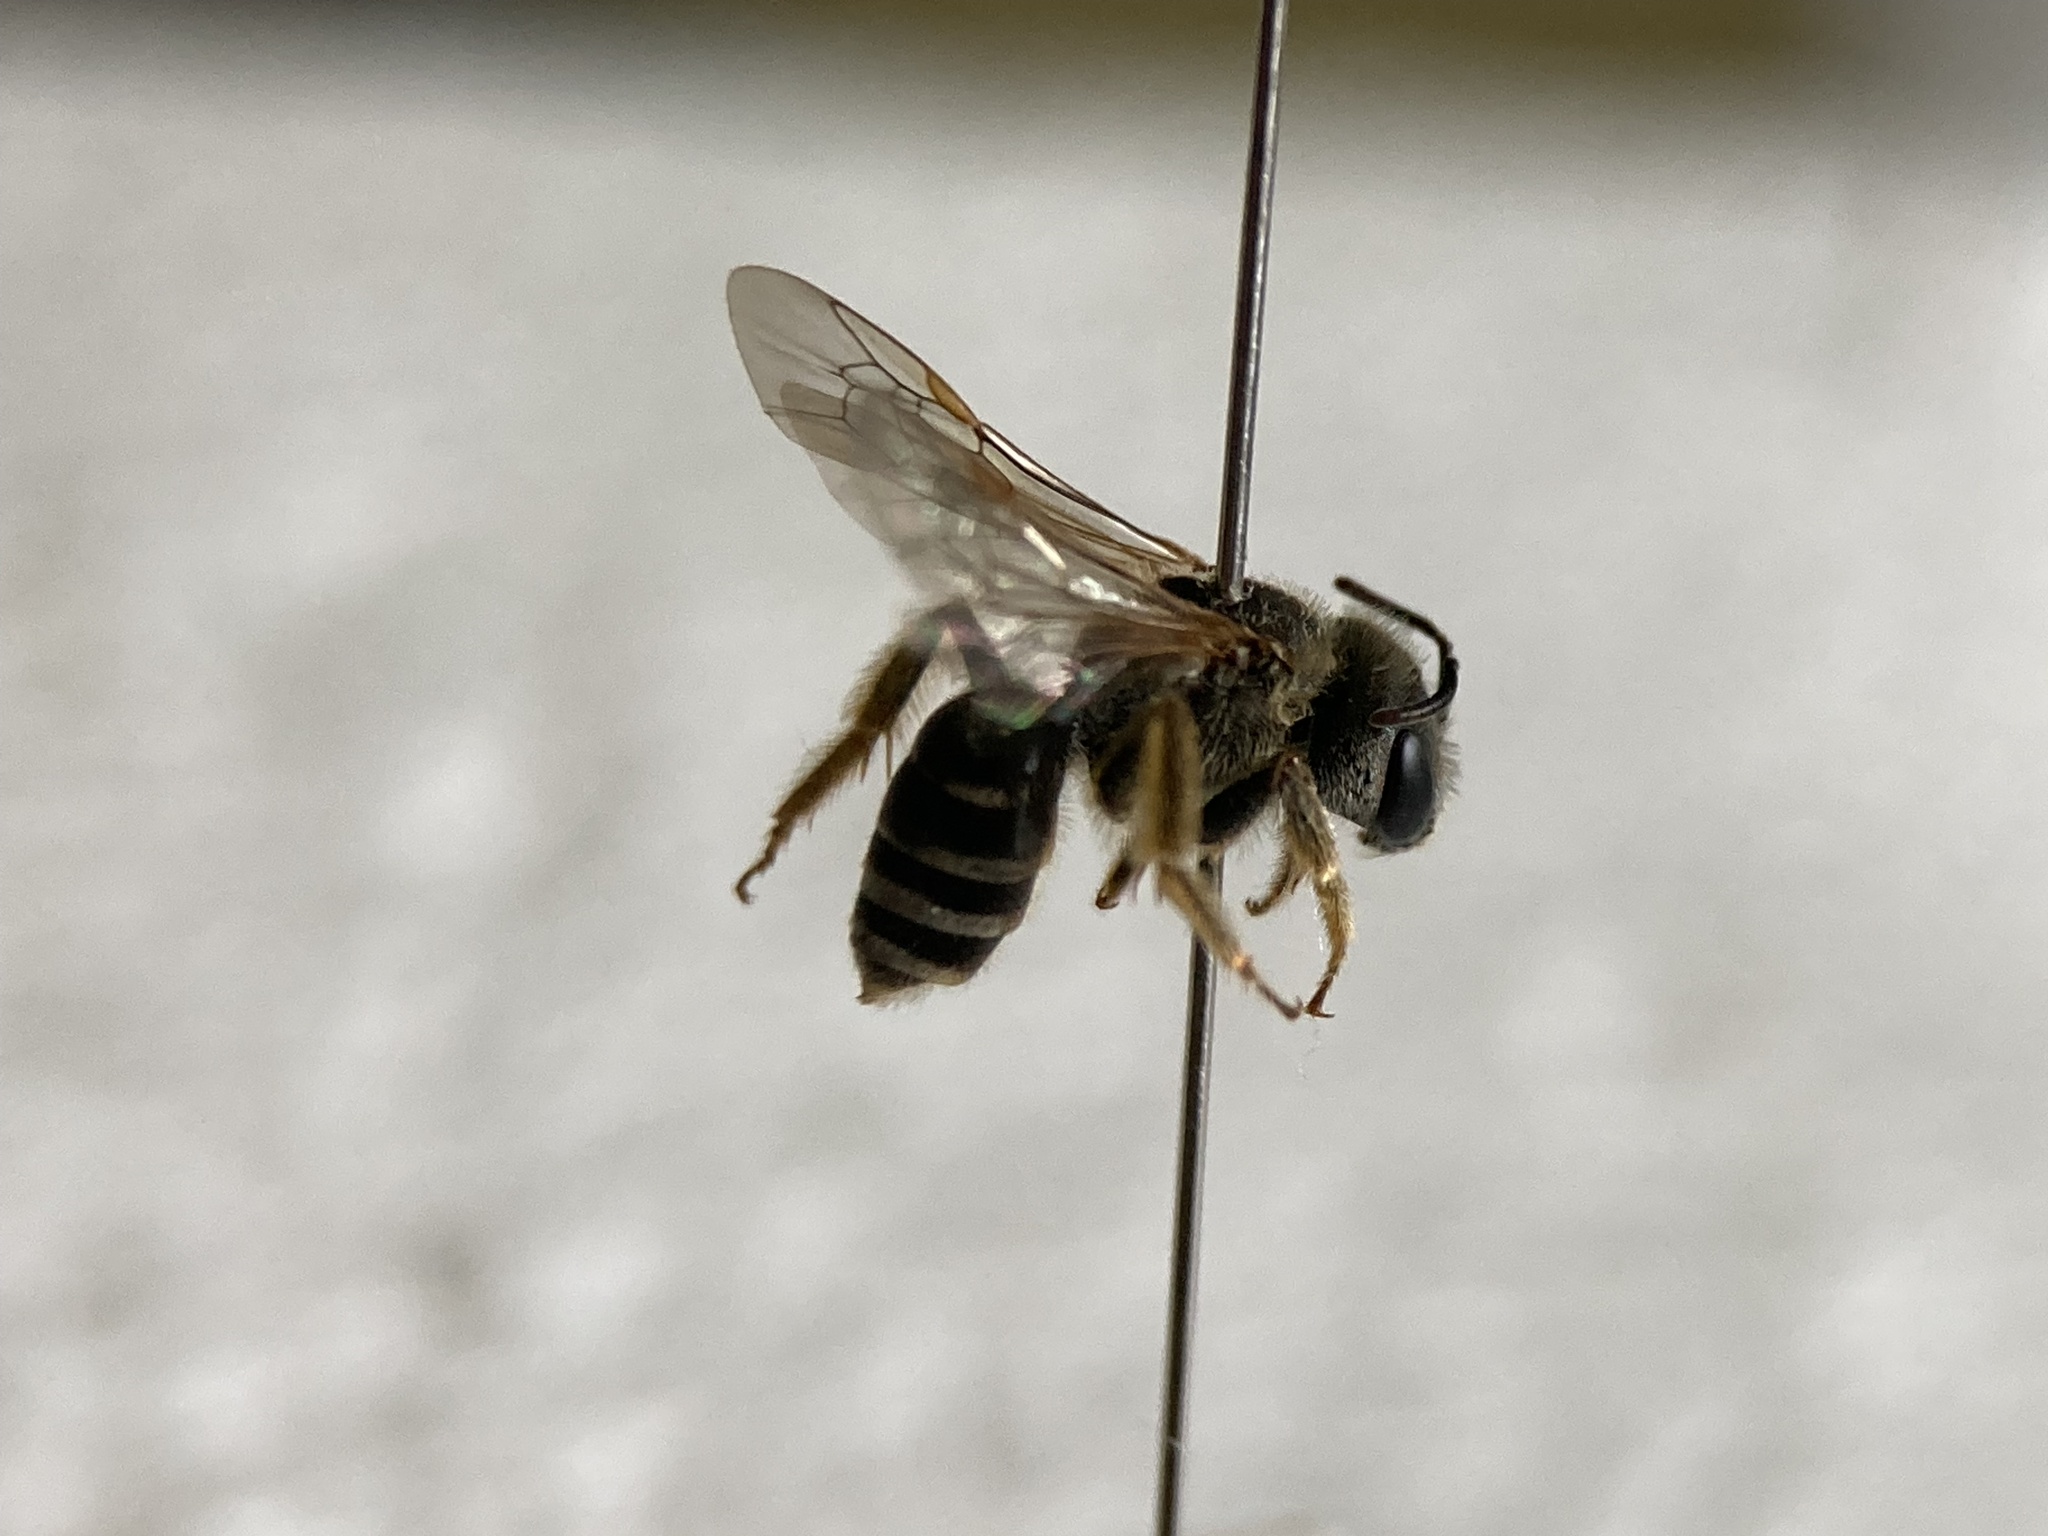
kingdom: Animalia
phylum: Arthropoda
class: Insecta
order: Hymenoptera
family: Halictidae
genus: Halictus
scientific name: Halictus ligatus
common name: Ligated furrow bee
